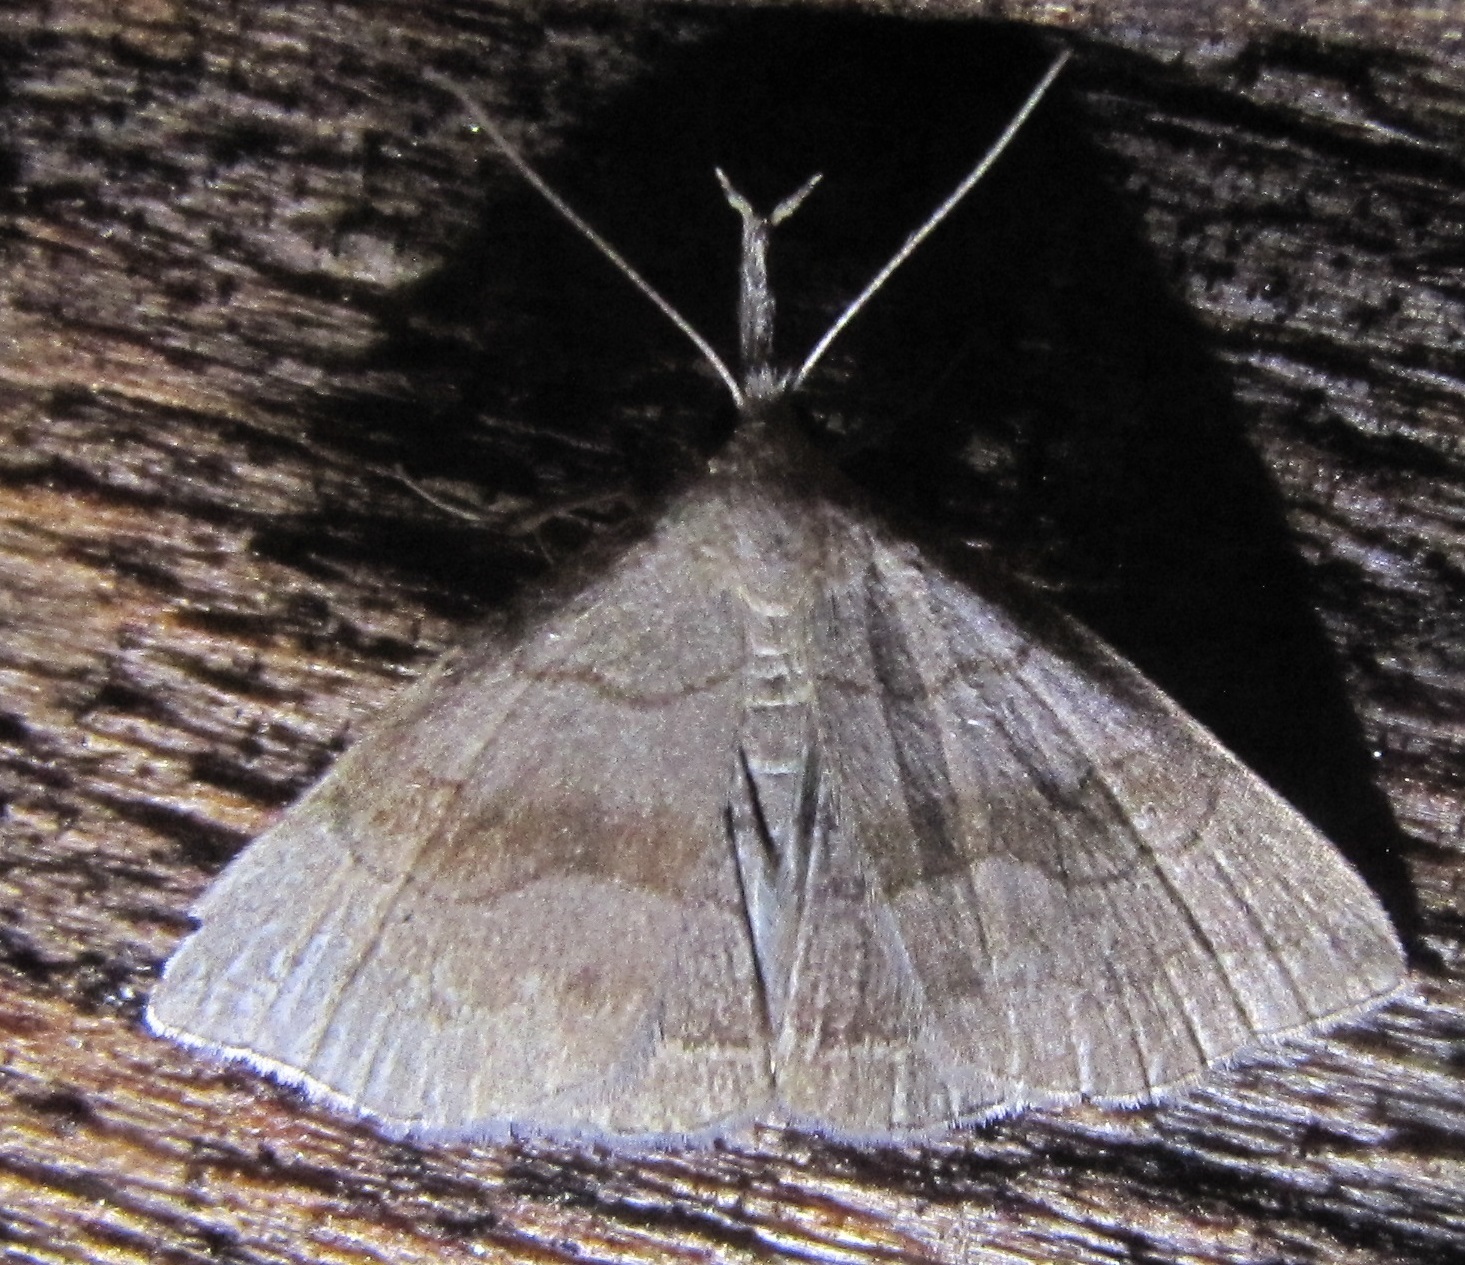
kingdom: Animalia
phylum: Arthropoda
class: Insecta
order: Lepidoptera
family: Erebidae
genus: Phalaenostola
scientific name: Phalaenostola metonalis
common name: Pale phalaenostola moth
